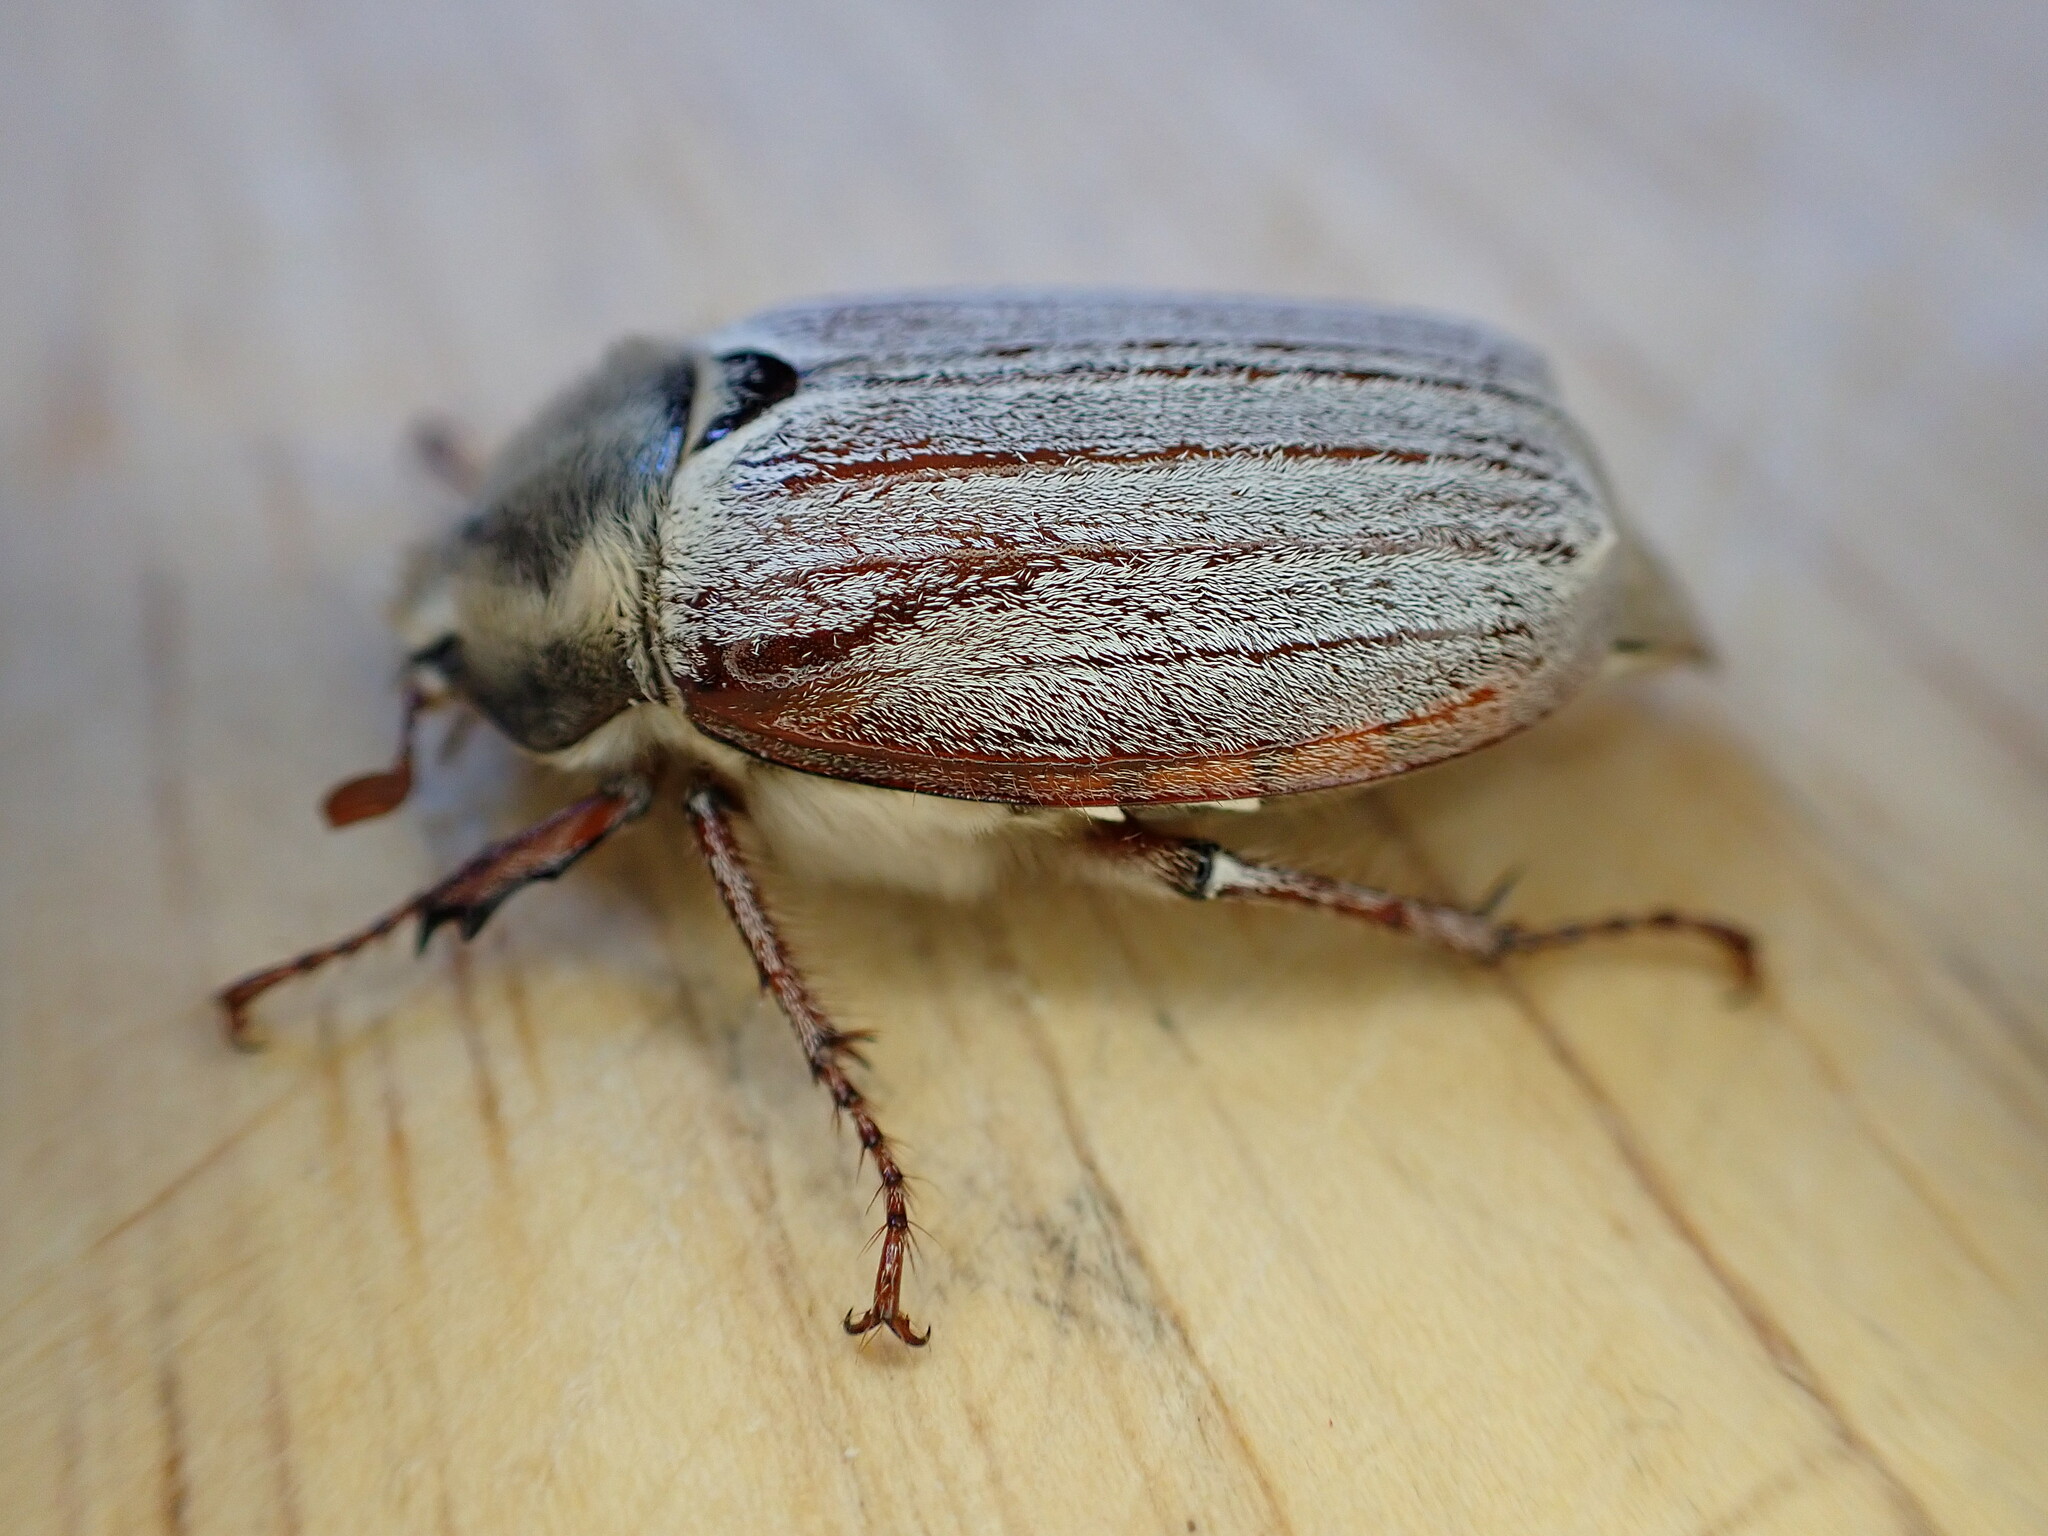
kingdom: Animalia
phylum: Arthropoda
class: Insecta
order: Coleoptera
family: Scarabaeidae
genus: Melolontha
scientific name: Melolontha melolontha
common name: Cockchafer maybeetle
